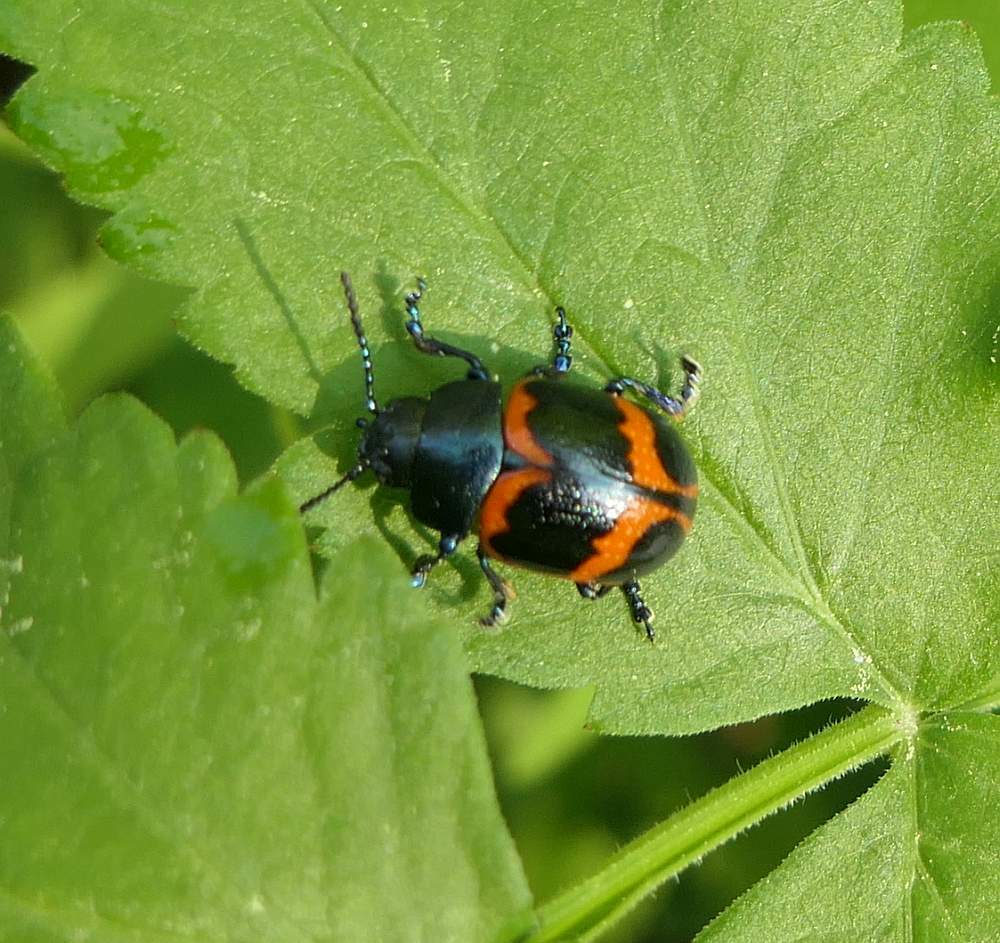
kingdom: Animalia
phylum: Arthropoda
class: Insecta
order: Coleoptera
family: Chrysomelidae
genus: Labidomera
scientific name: Labidomera clivicollis
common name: Swamp milkweed leaf beetle
